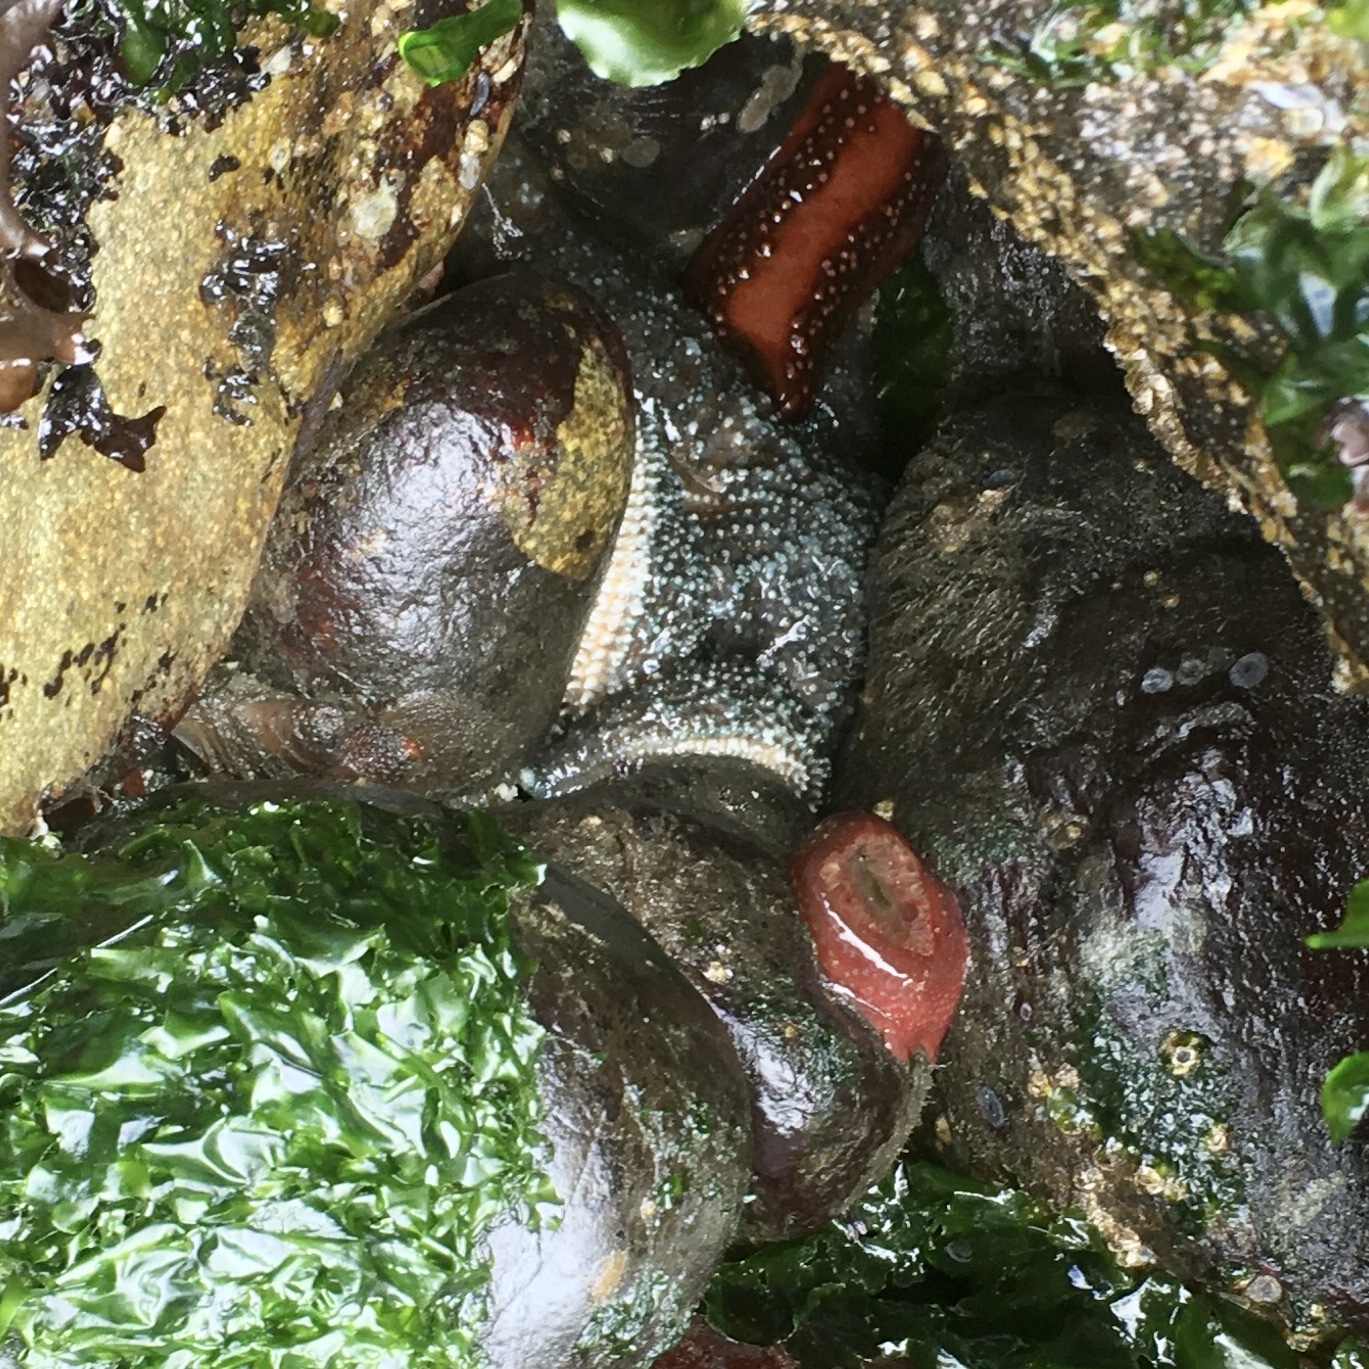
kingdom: Animalia
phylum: Echinodermata
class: Asteroidea
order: Forcipulatida
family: Asteriidae
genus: Evasterias
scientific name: Evasterias troschelii
